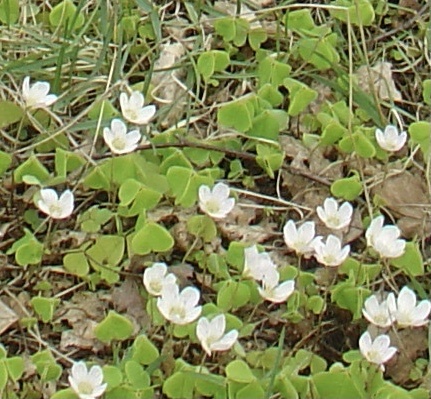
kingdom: Plantae
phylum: Tracheophyta
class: Magnoliopsida
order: Oxalidales
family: Oxalidaceae
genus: Oxalis
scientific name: Oxalis acetosella
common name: Wood-sorrel
